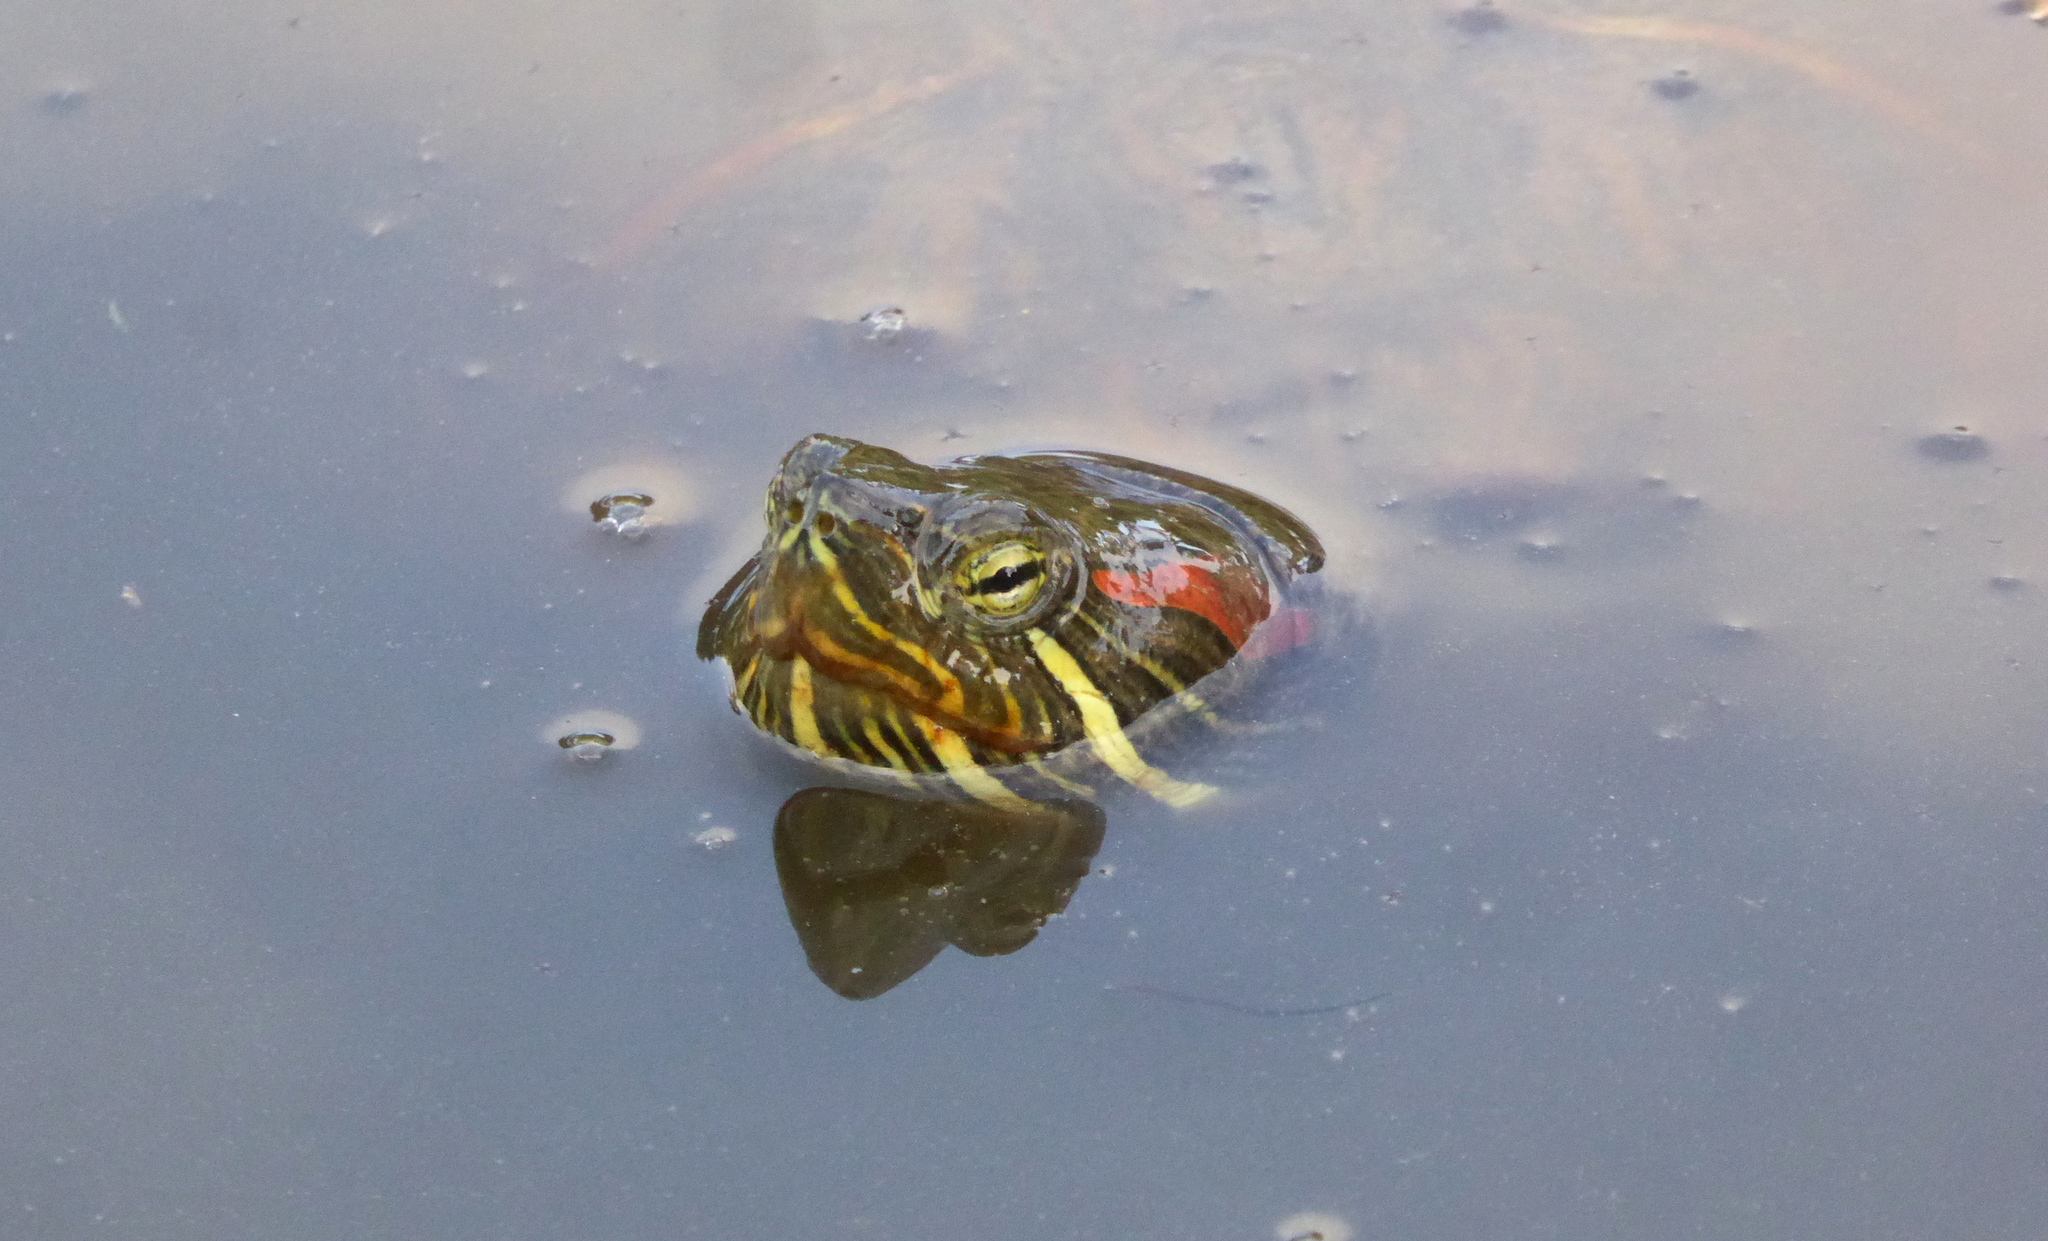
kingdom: Animalia
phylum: Chordata
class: Testudines
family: Emydidae
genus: Trachemys
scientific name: Trachemys scripta
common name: Slider
